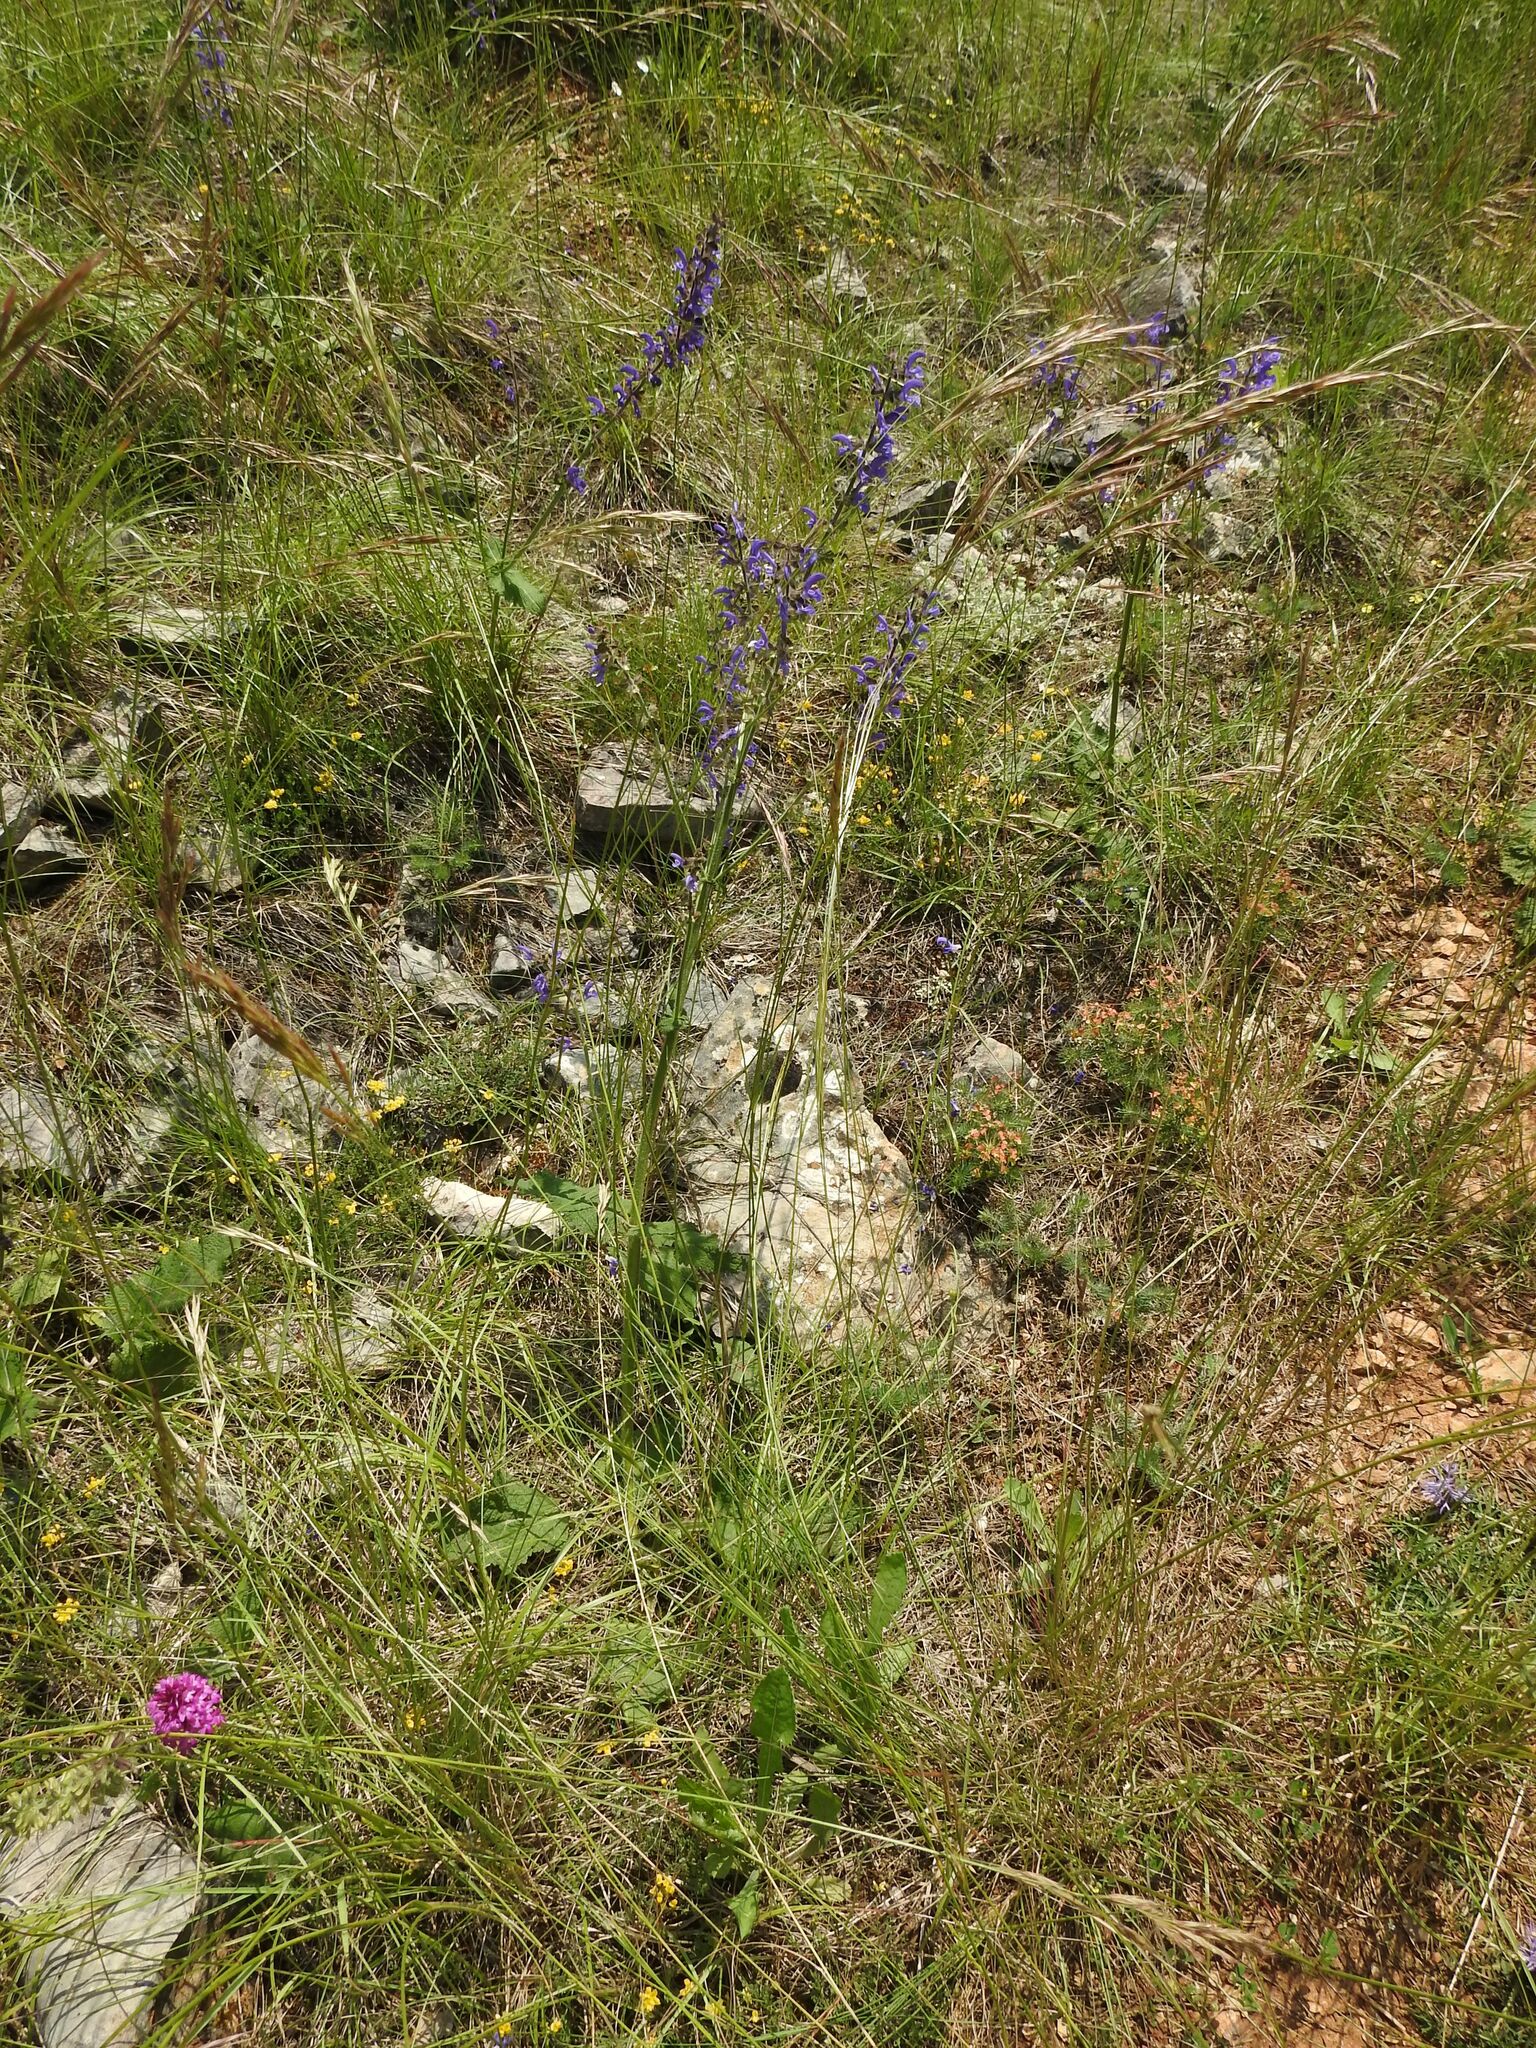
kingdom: Plantae
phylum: Tracheophyta
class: Magnoliopsida
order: Lamiales
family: Lamiaceae
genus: Salvia
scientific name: Salvia pratensis
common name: Meadow sage
